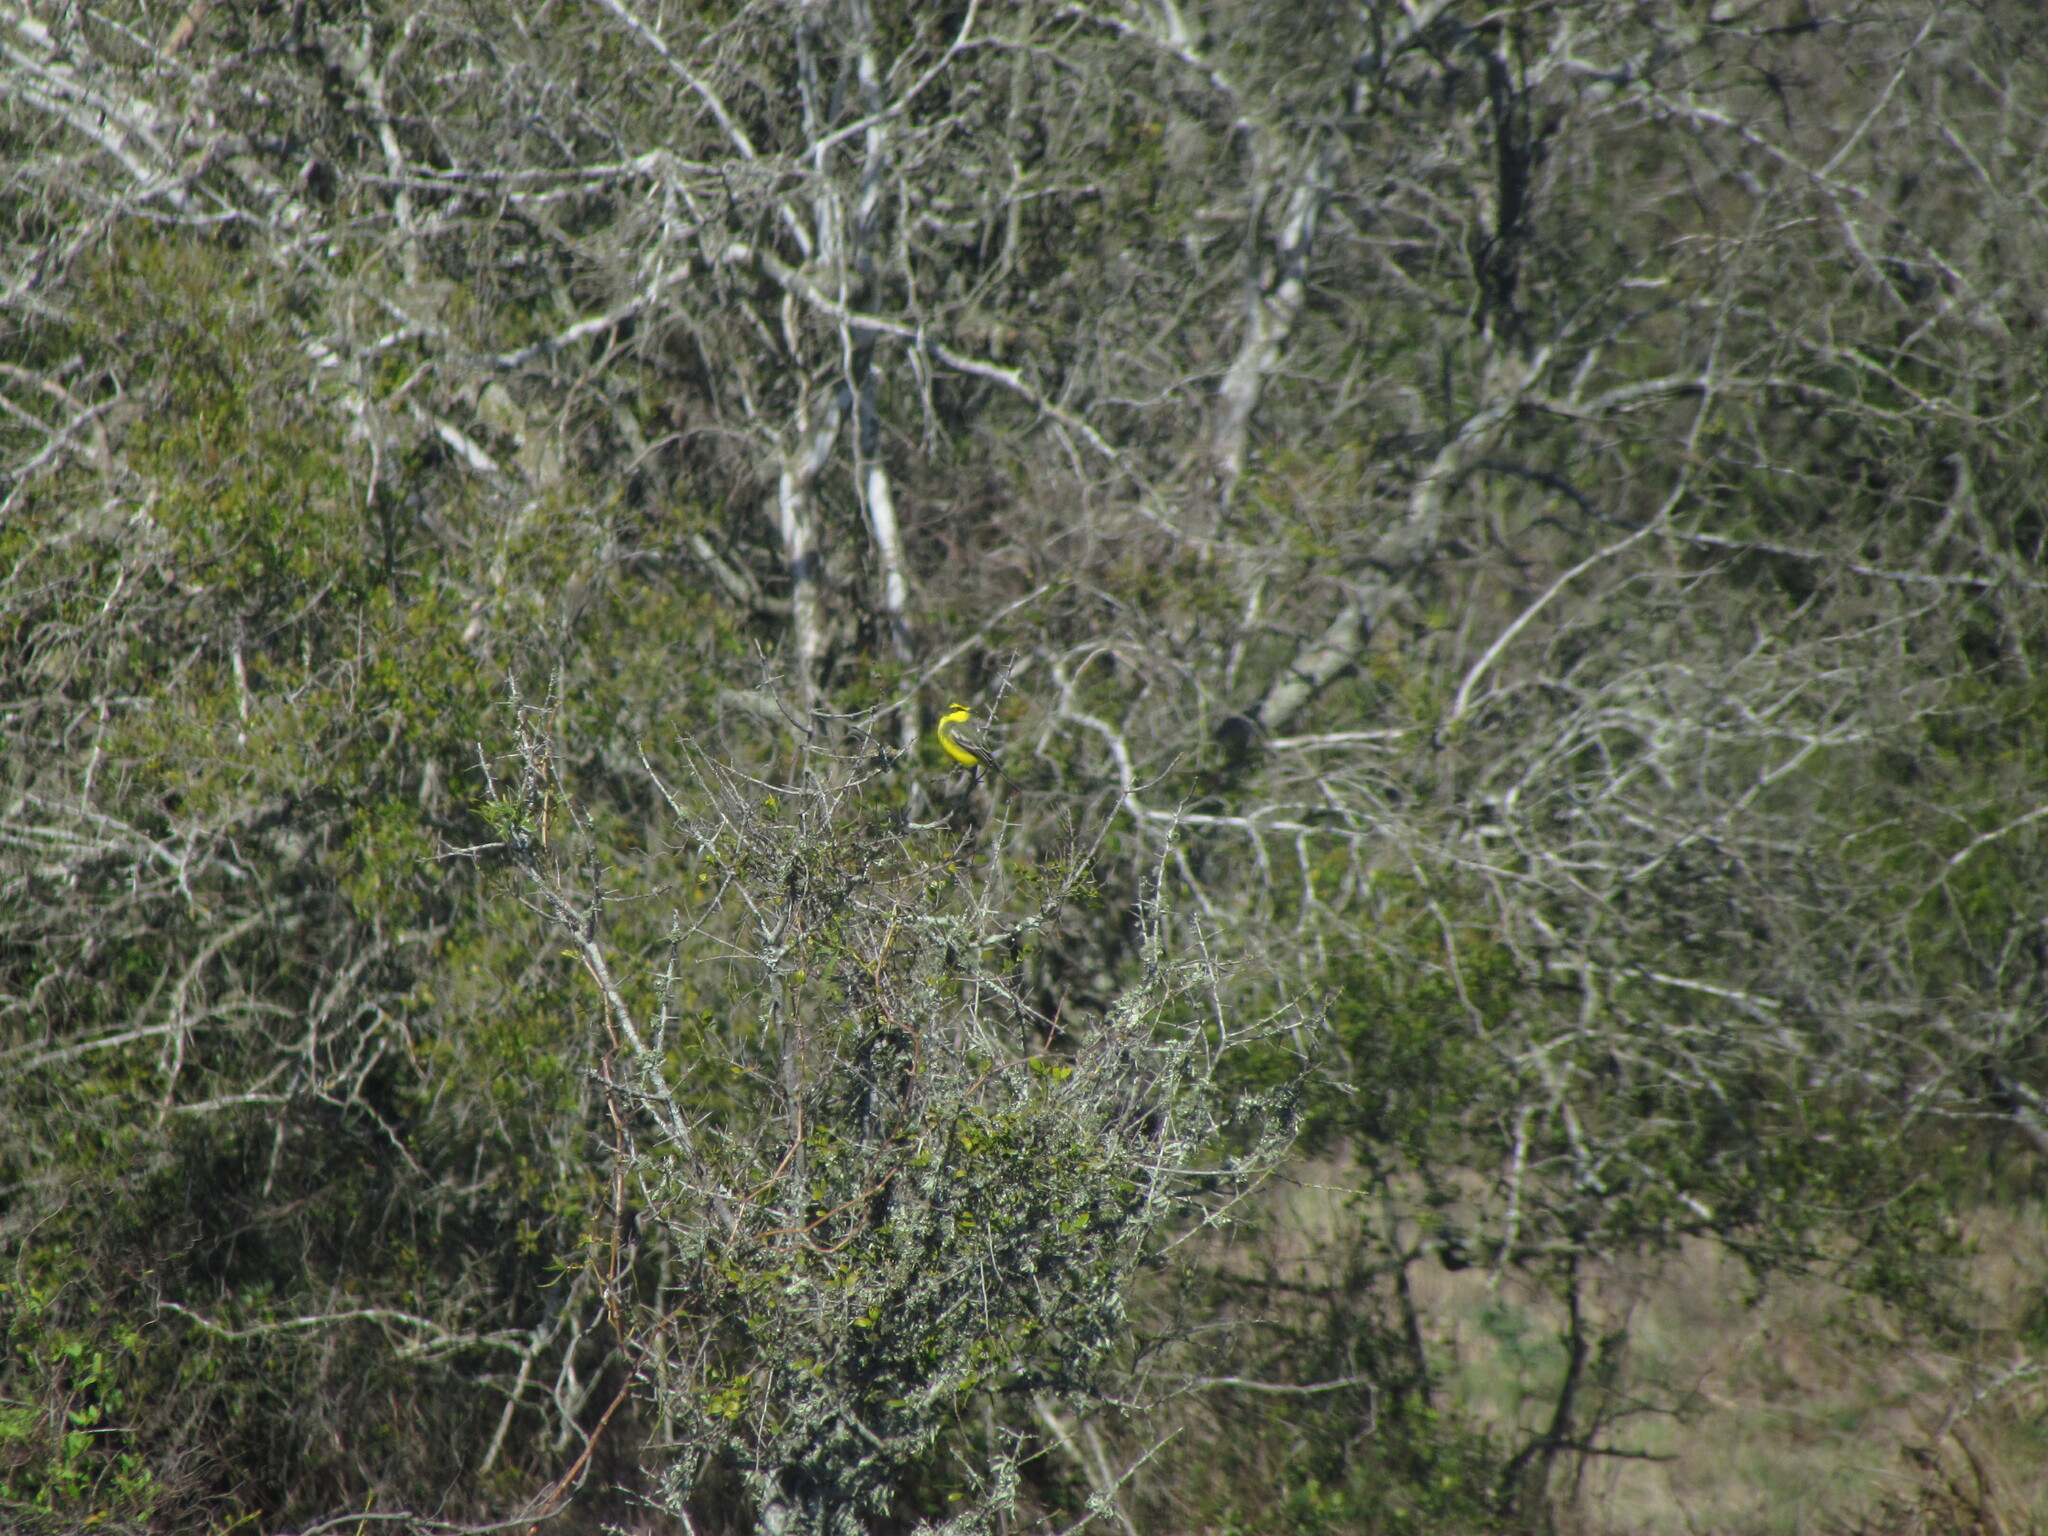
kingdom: Animalia
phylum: Chordata
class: Aves
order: Passeriformes
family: Tyrannidae
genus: Satrapa
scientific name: Satrapa icterophrys
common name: Yellow-browed tyrant
